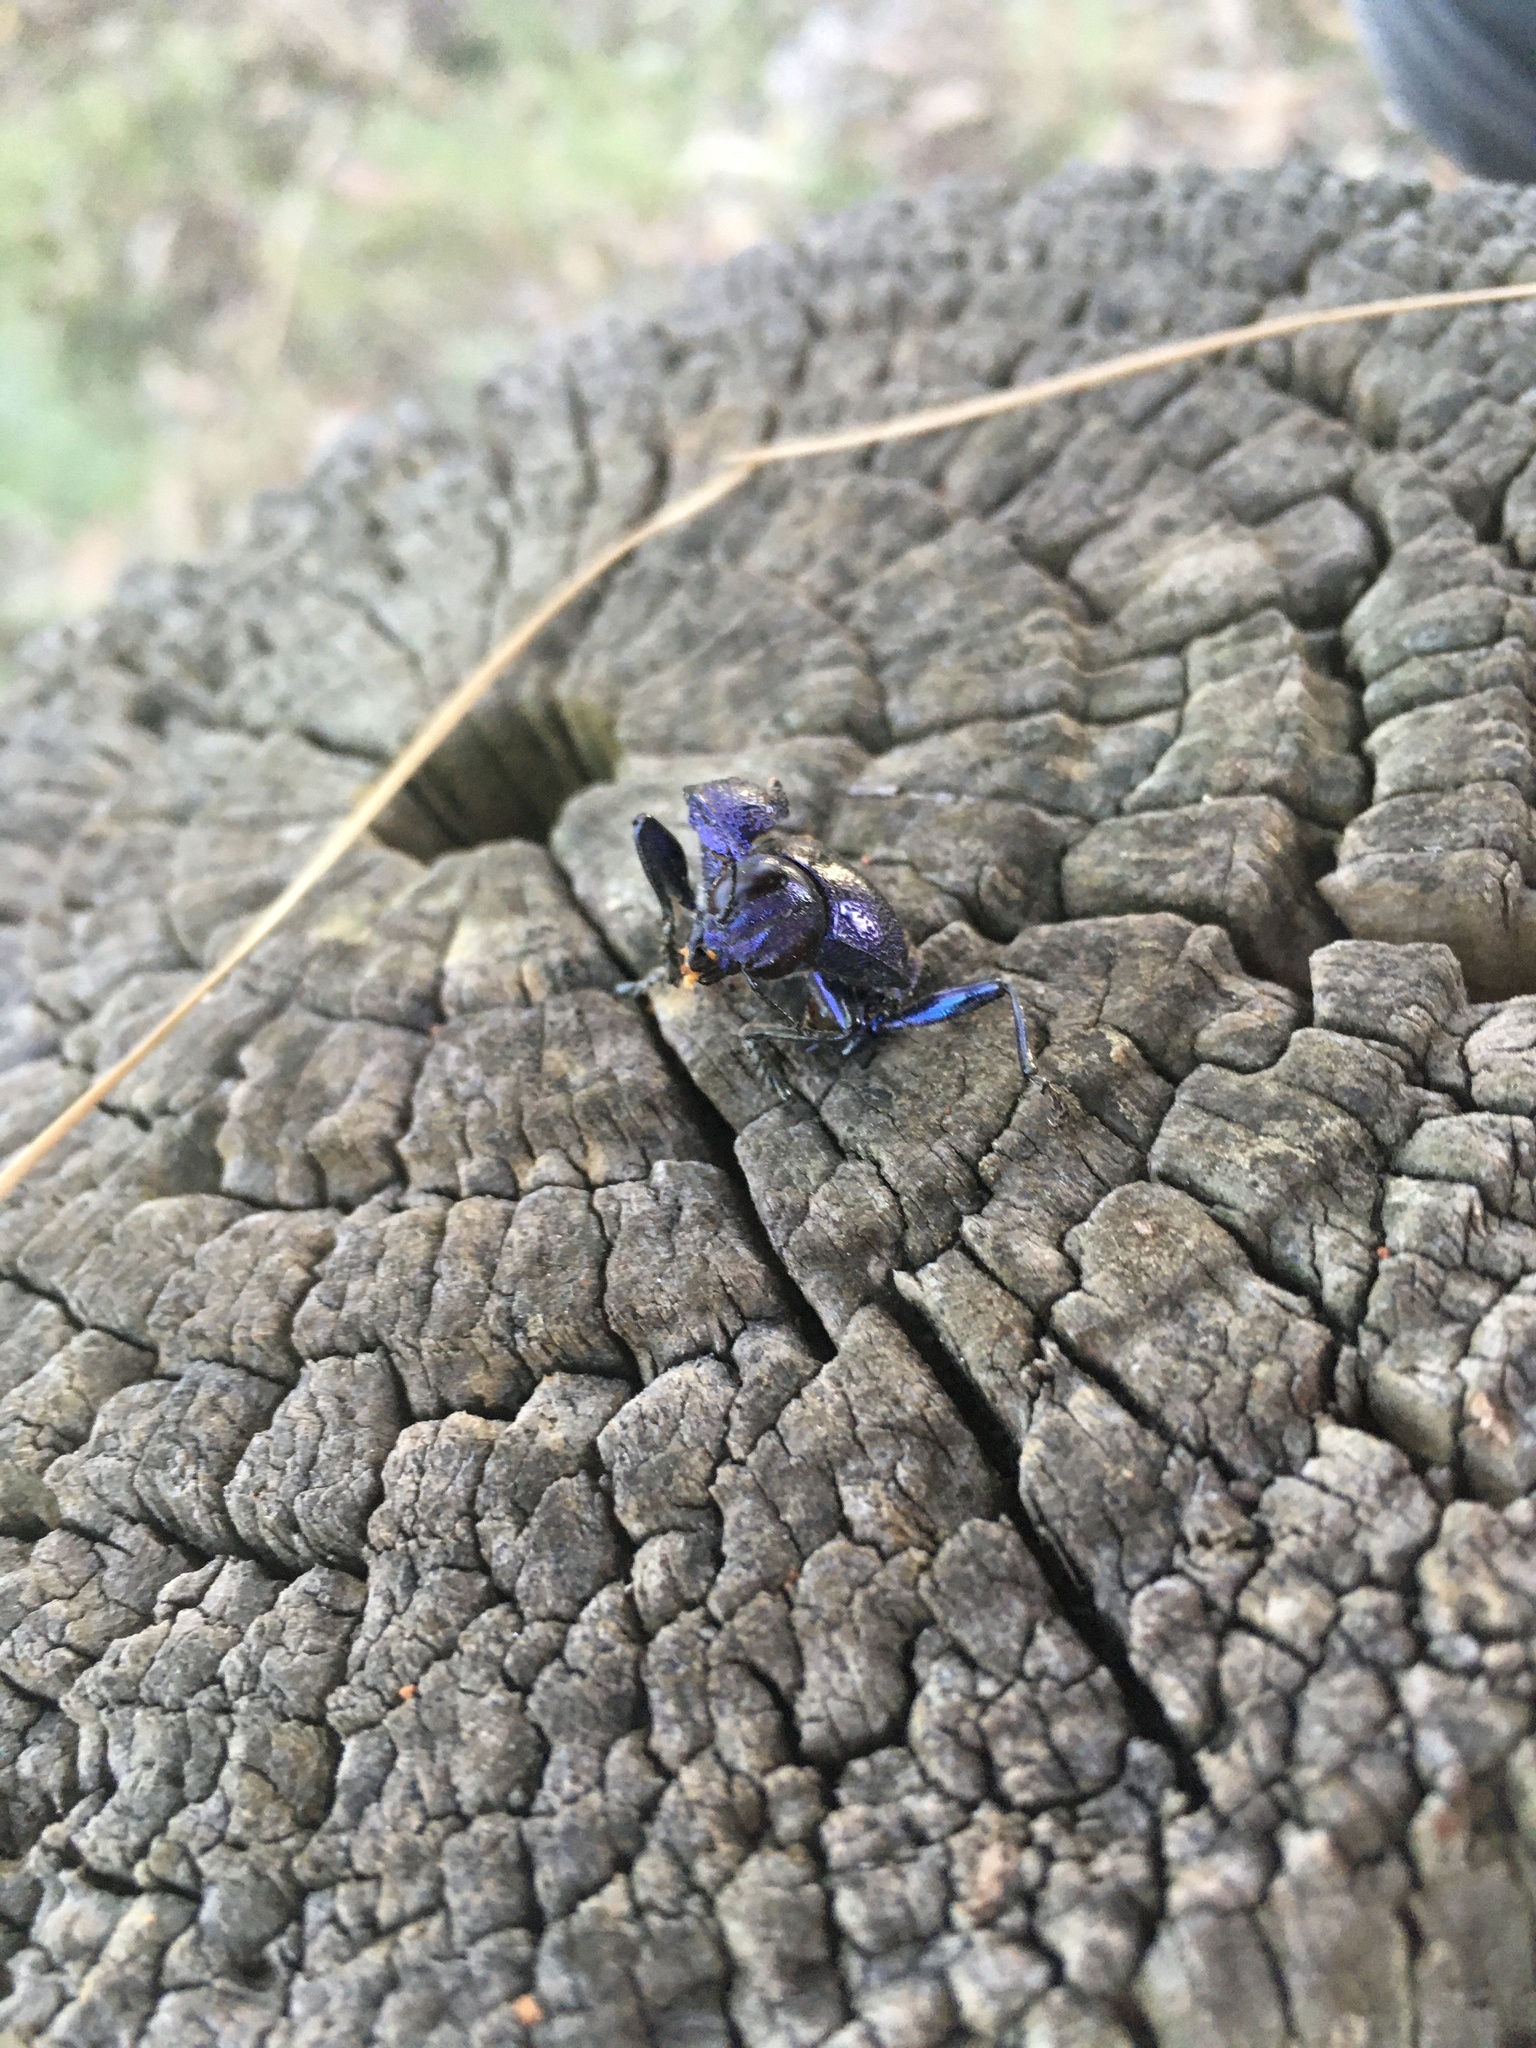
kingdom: Animalia
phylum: Arthropoda
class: Insecta
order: Coleoptera
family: Buprestidae
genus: Temognatha
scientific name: Temognatha suturalis
